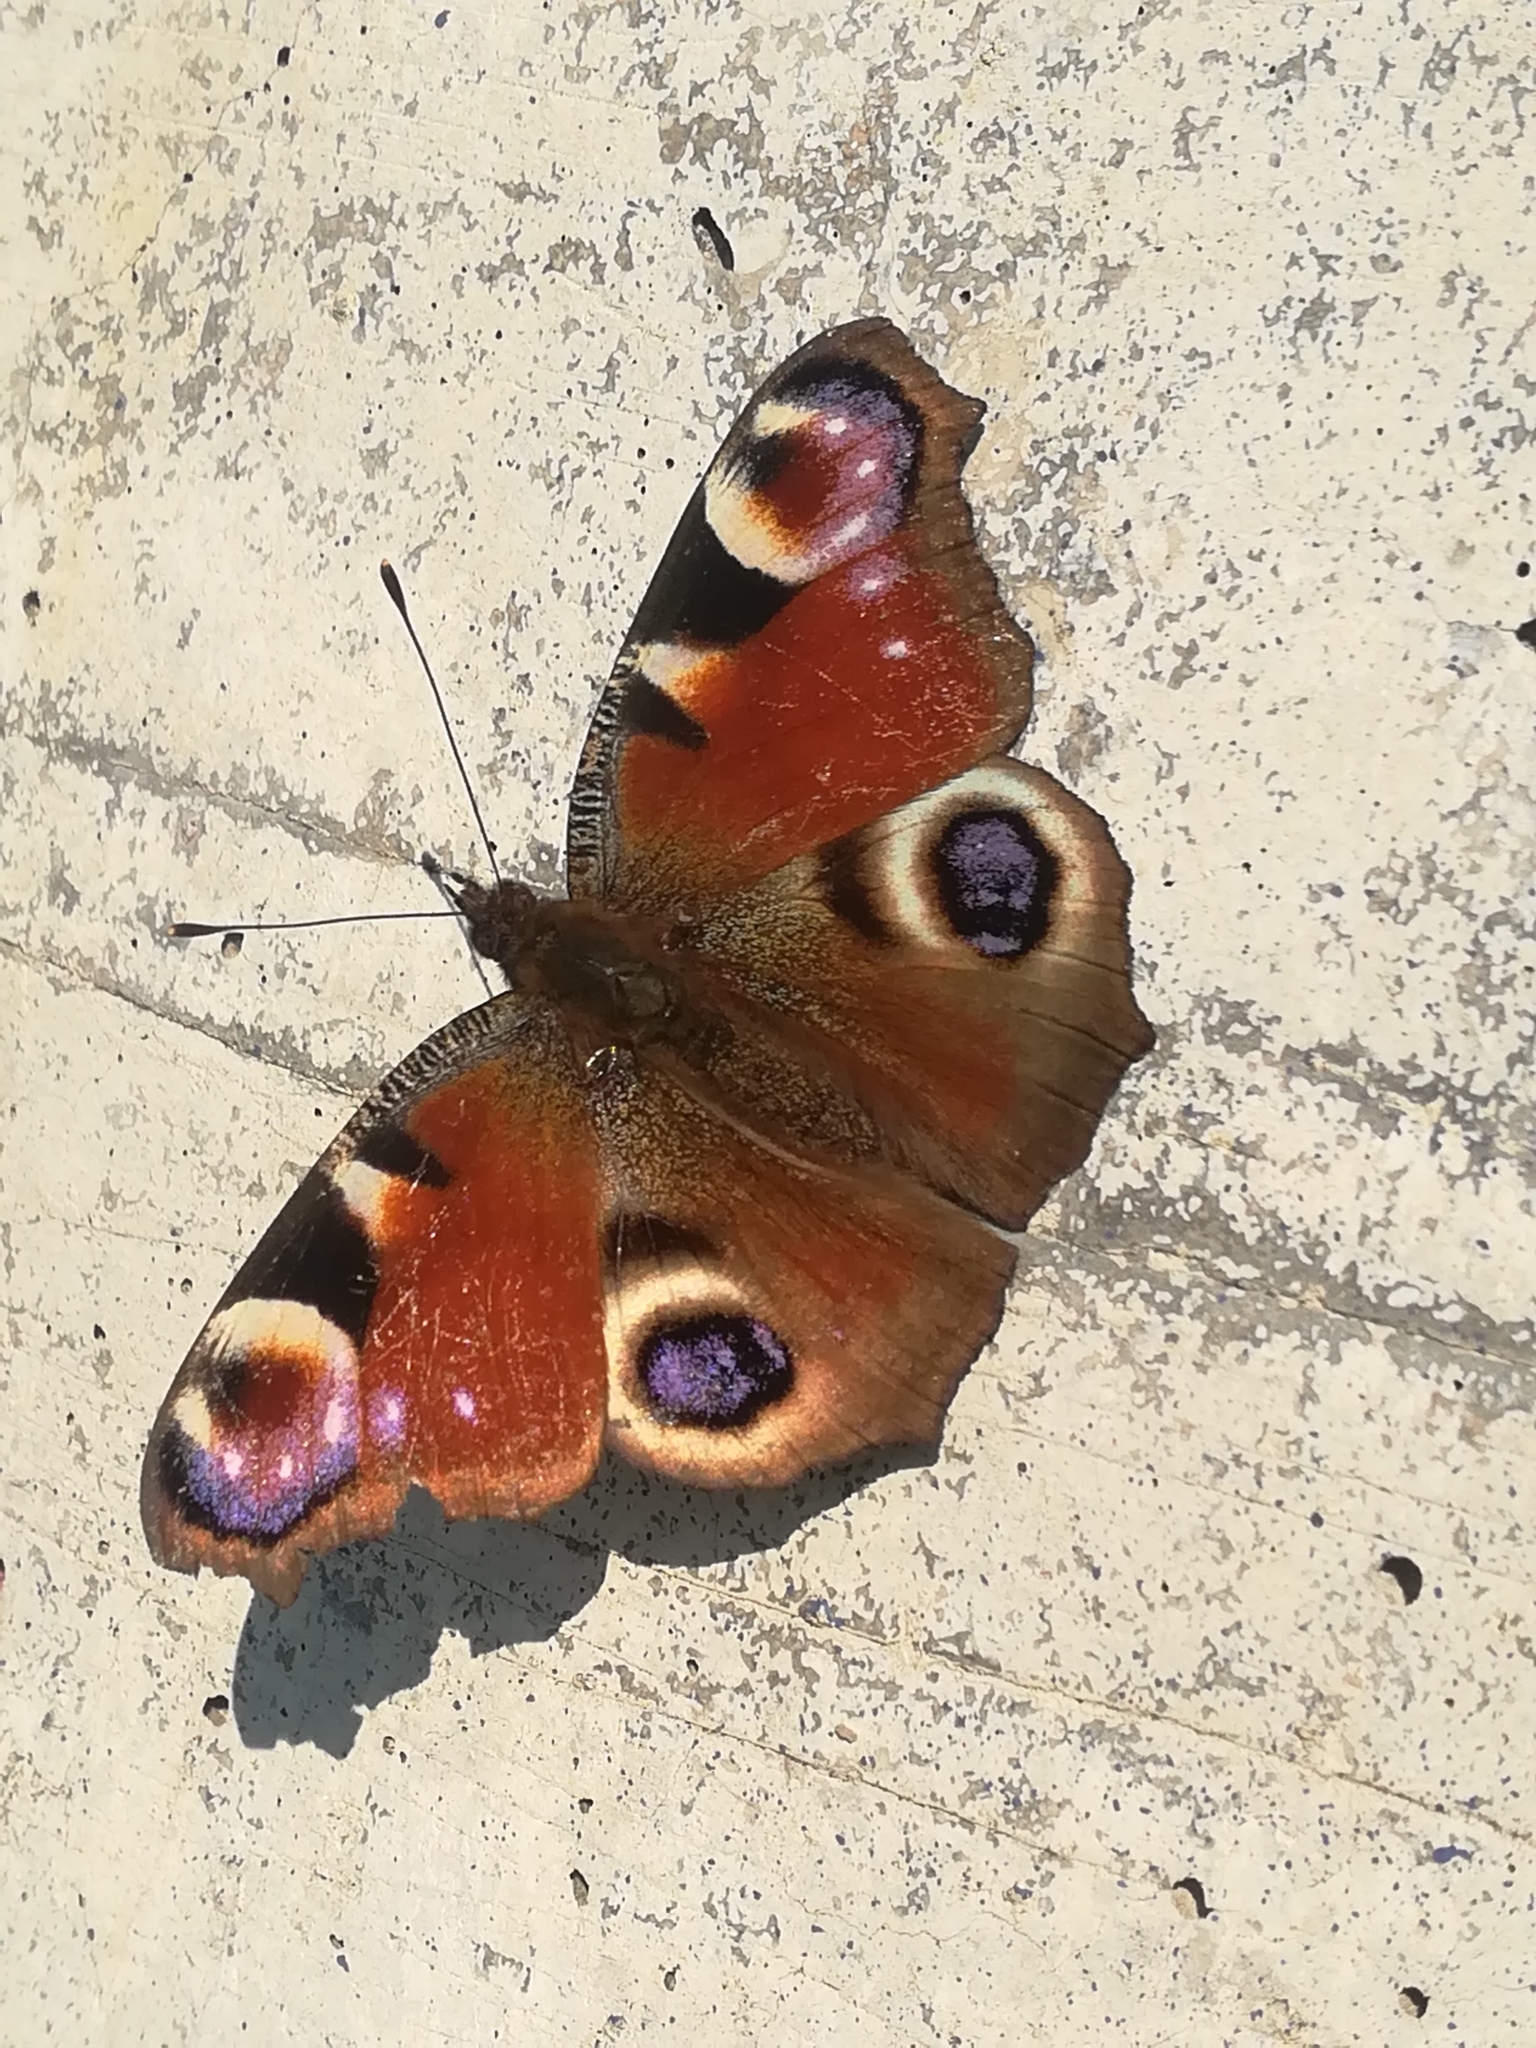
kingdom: Animalia
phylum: Arthropoda
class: Insecta
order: Lepidoptera
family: Nymphalidae
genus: Aglais
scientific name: Aglais io
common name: Peacock
